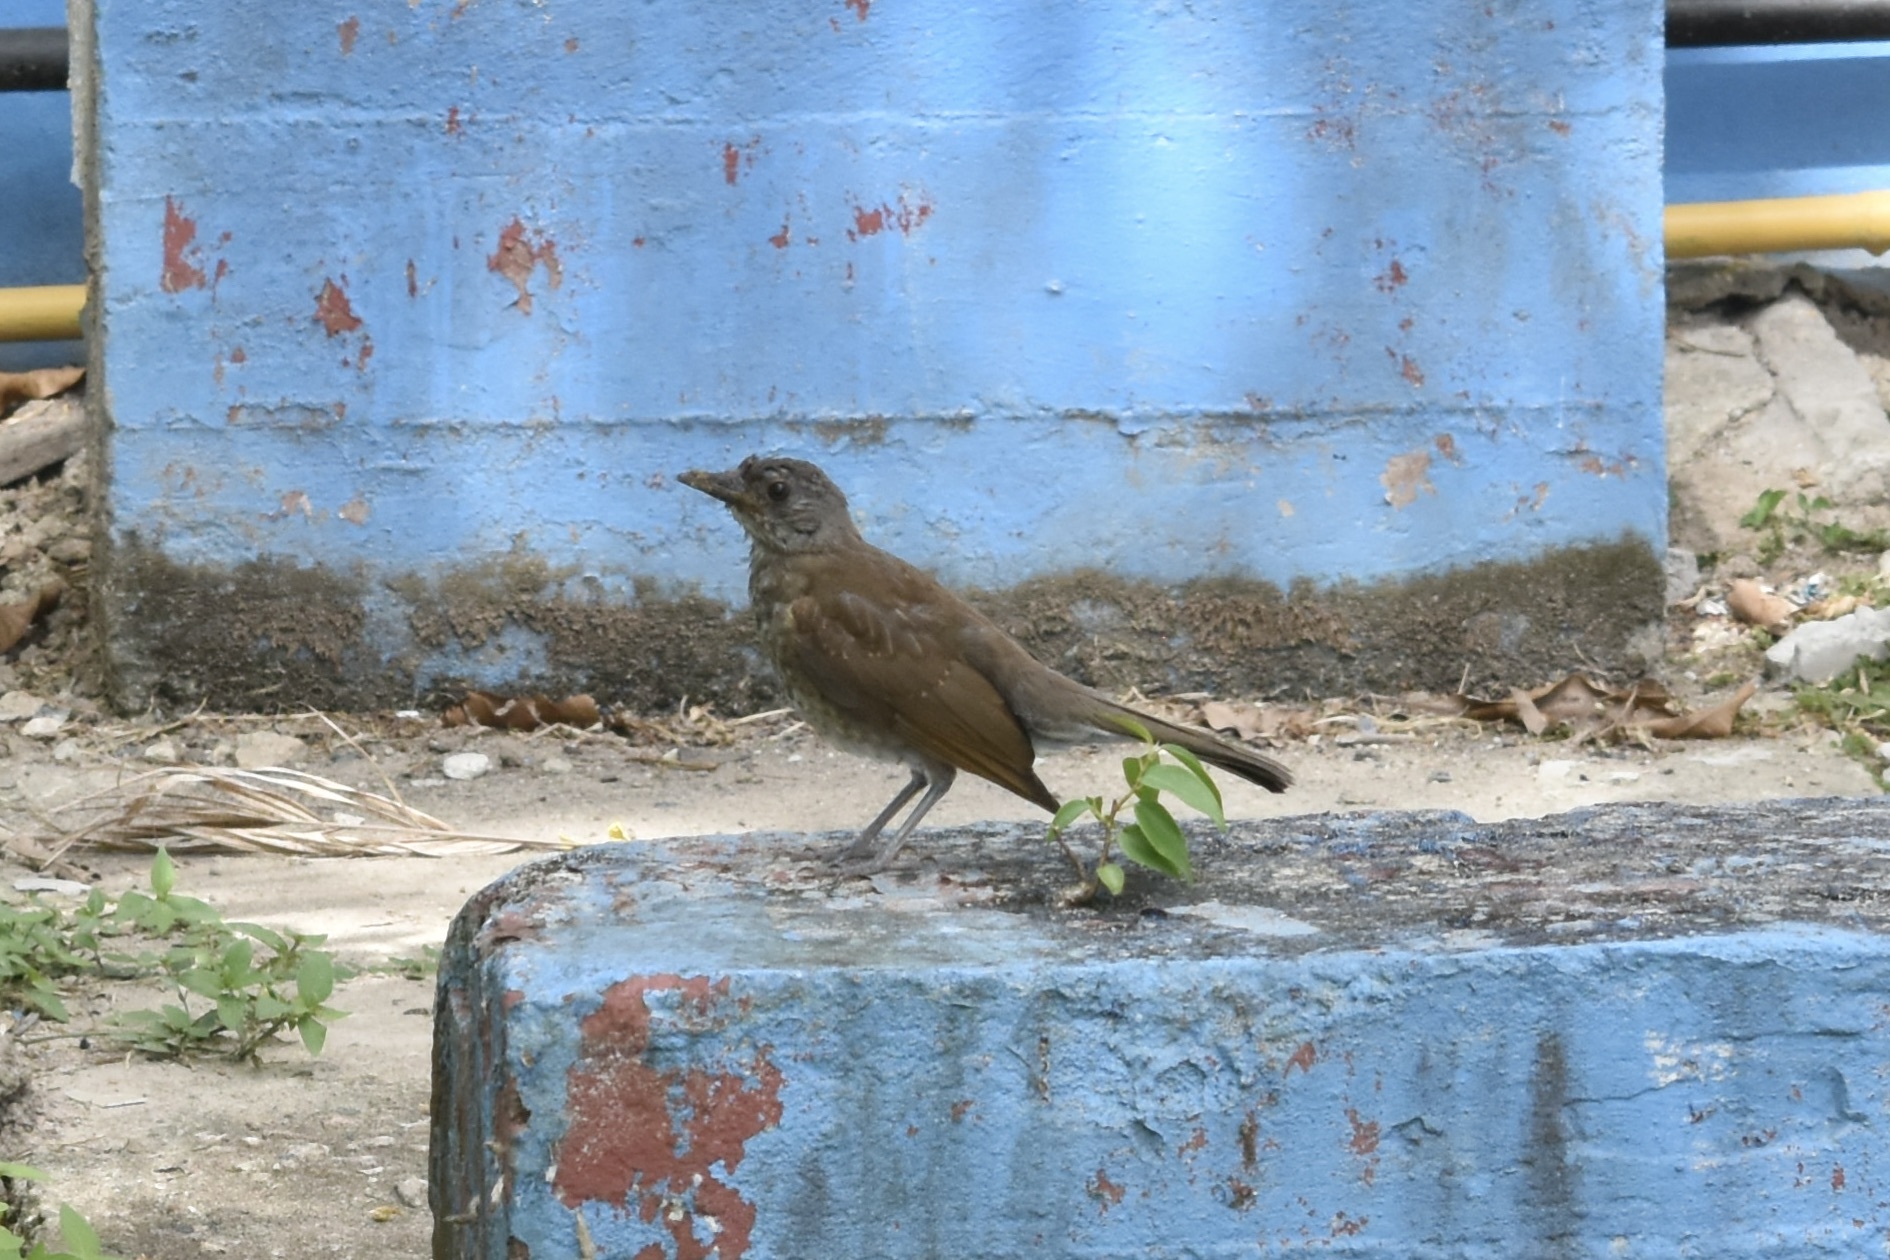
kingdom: Animalia
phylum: Chordata
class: Aves
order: Passeriformes
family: Turdidae
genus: Turdus
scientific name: Turdus leucomelas
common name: Pale-breasted thrush
